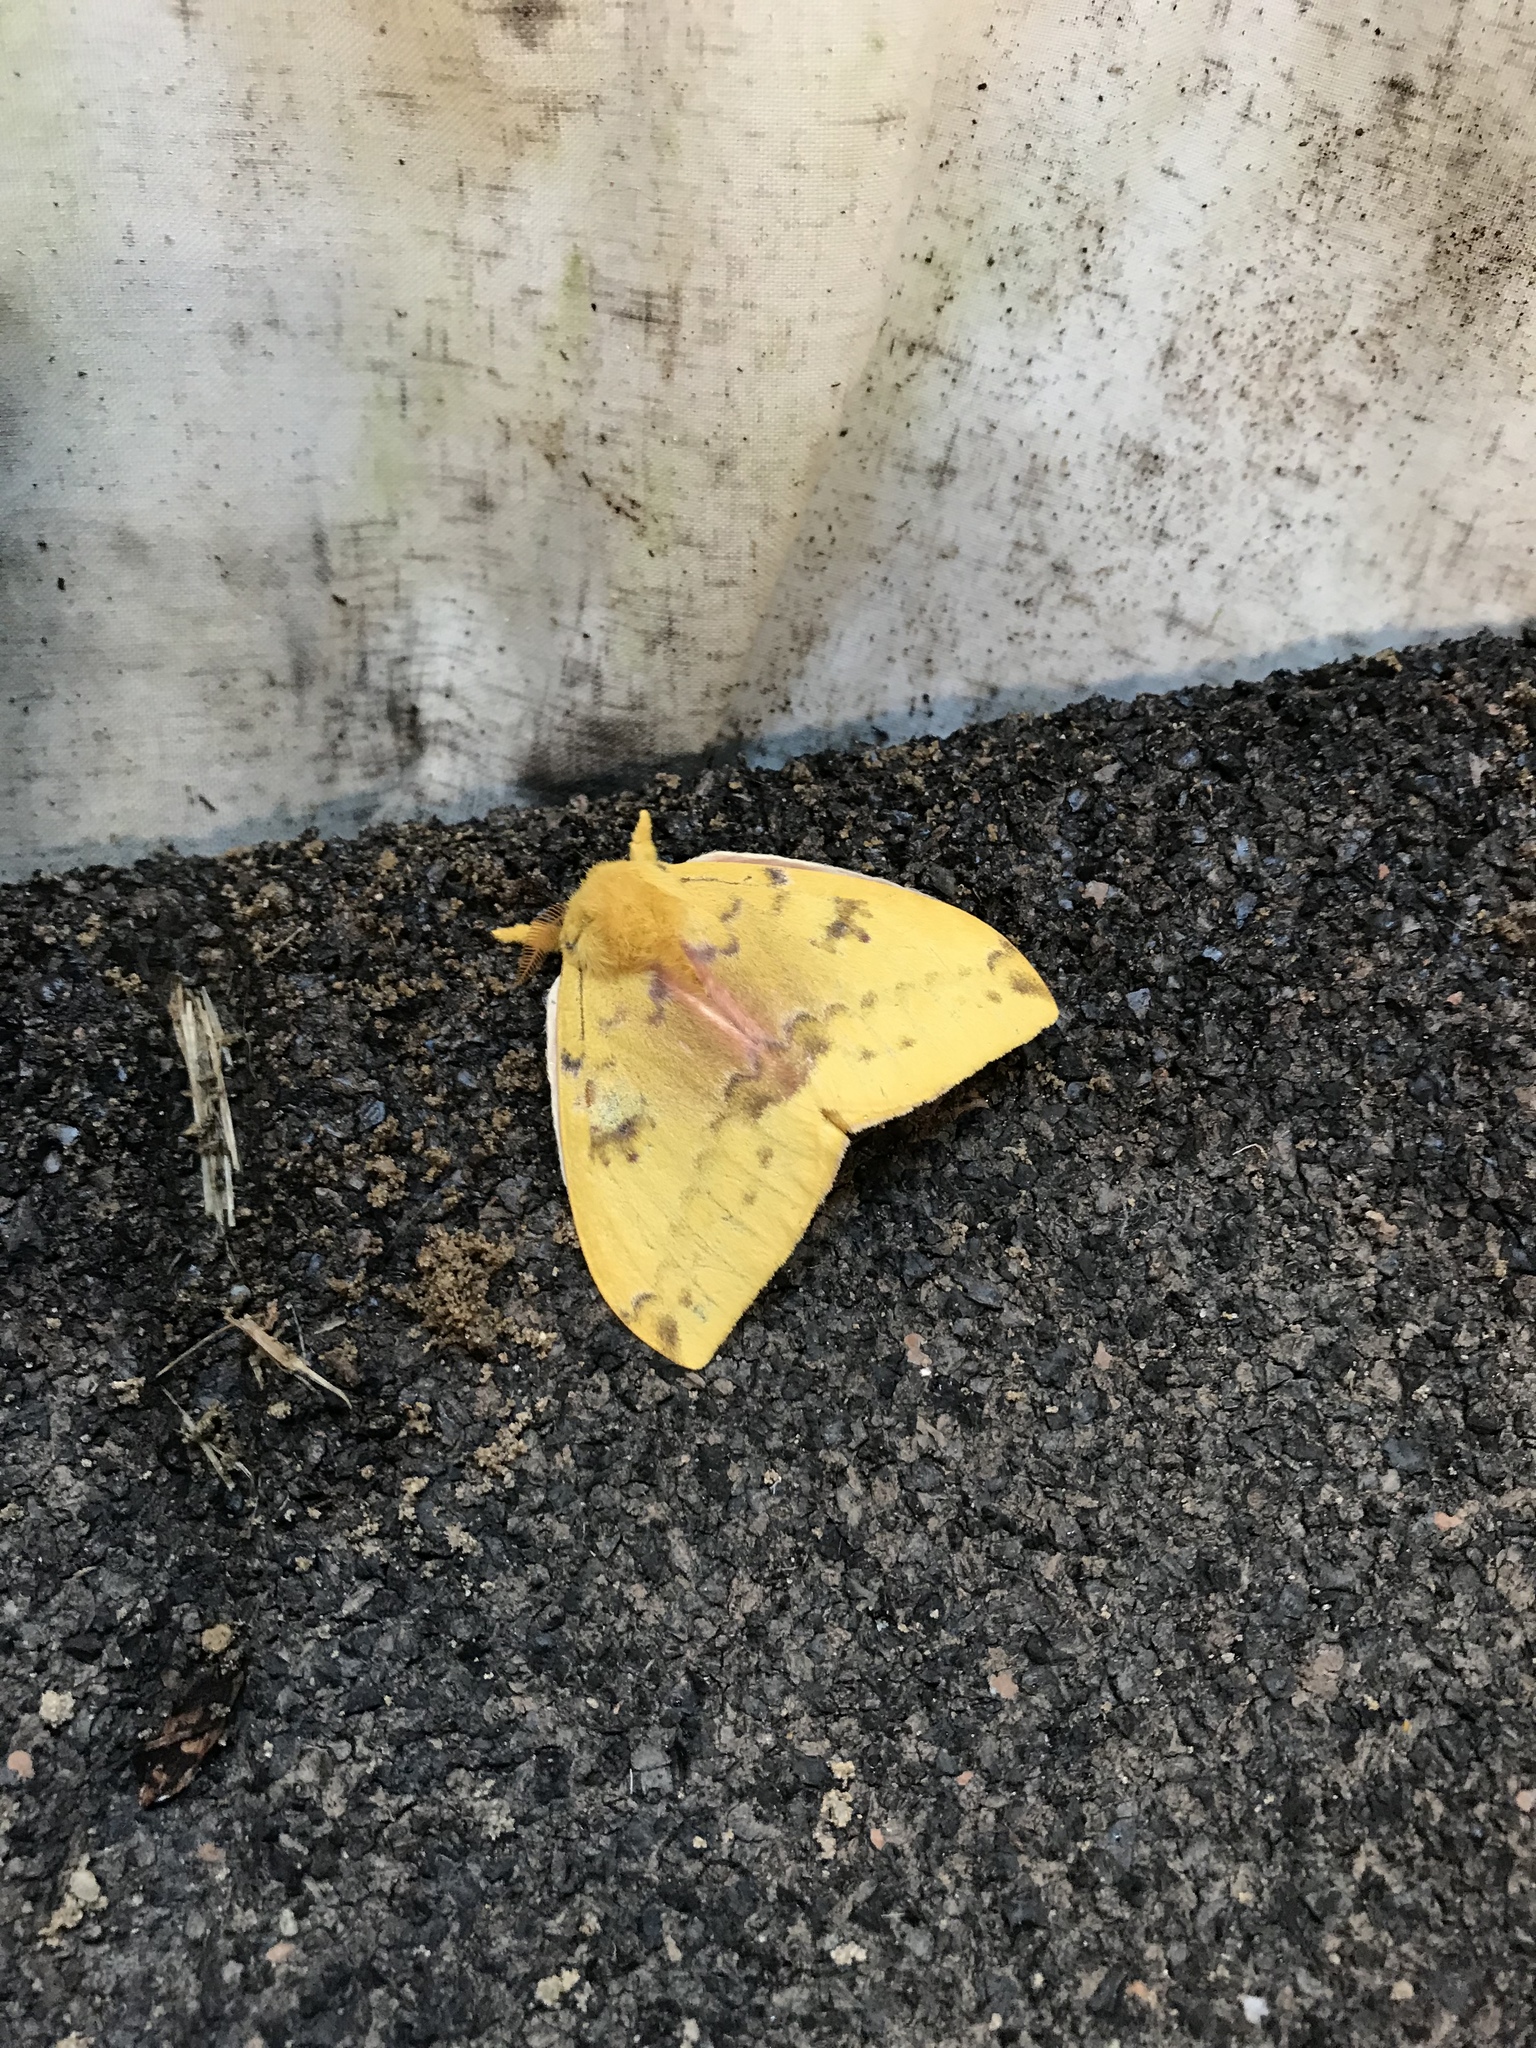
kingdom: Animalia
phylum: Arthropoda
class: Insecta
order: Lepidoptera
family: Saturniidae
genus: Automeris
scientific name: Automeris io
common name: Io moth
